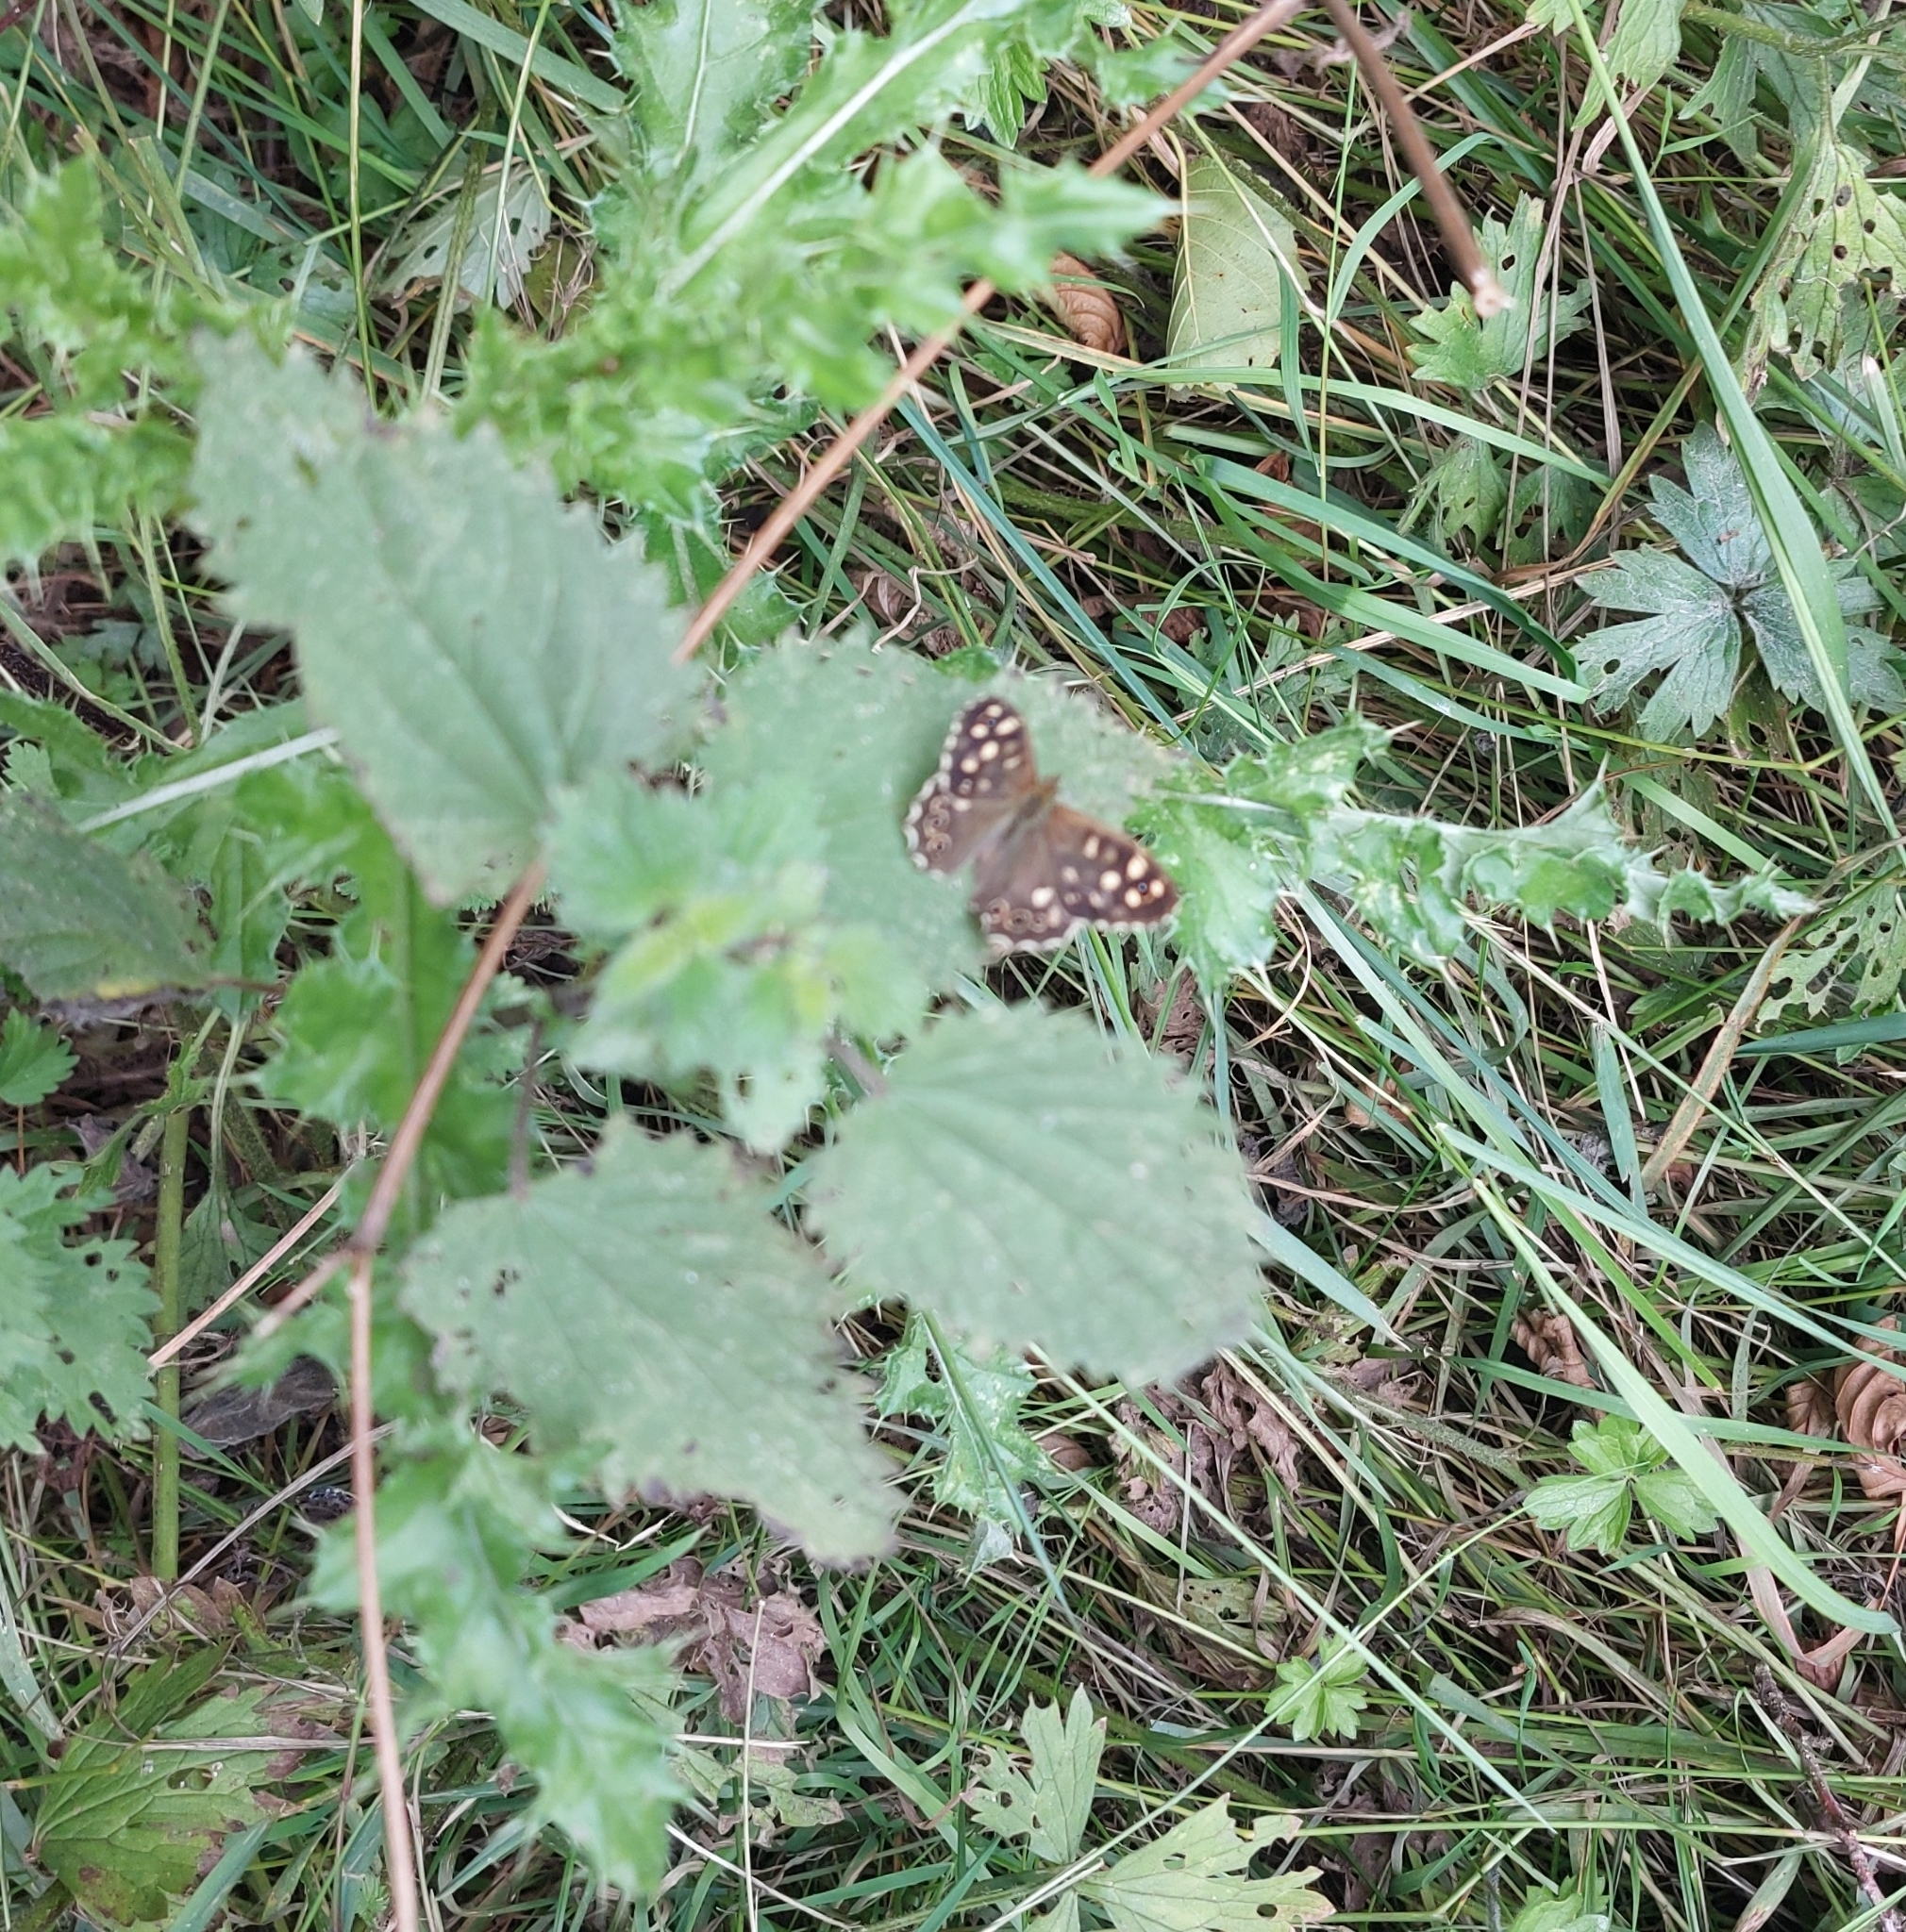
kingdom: Animalia
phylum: Arthropoda
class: Insecta
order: Lepidoptera
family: Nymphalidae
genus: Pararge
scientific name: Pararge aegeria
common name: Speckled wood
